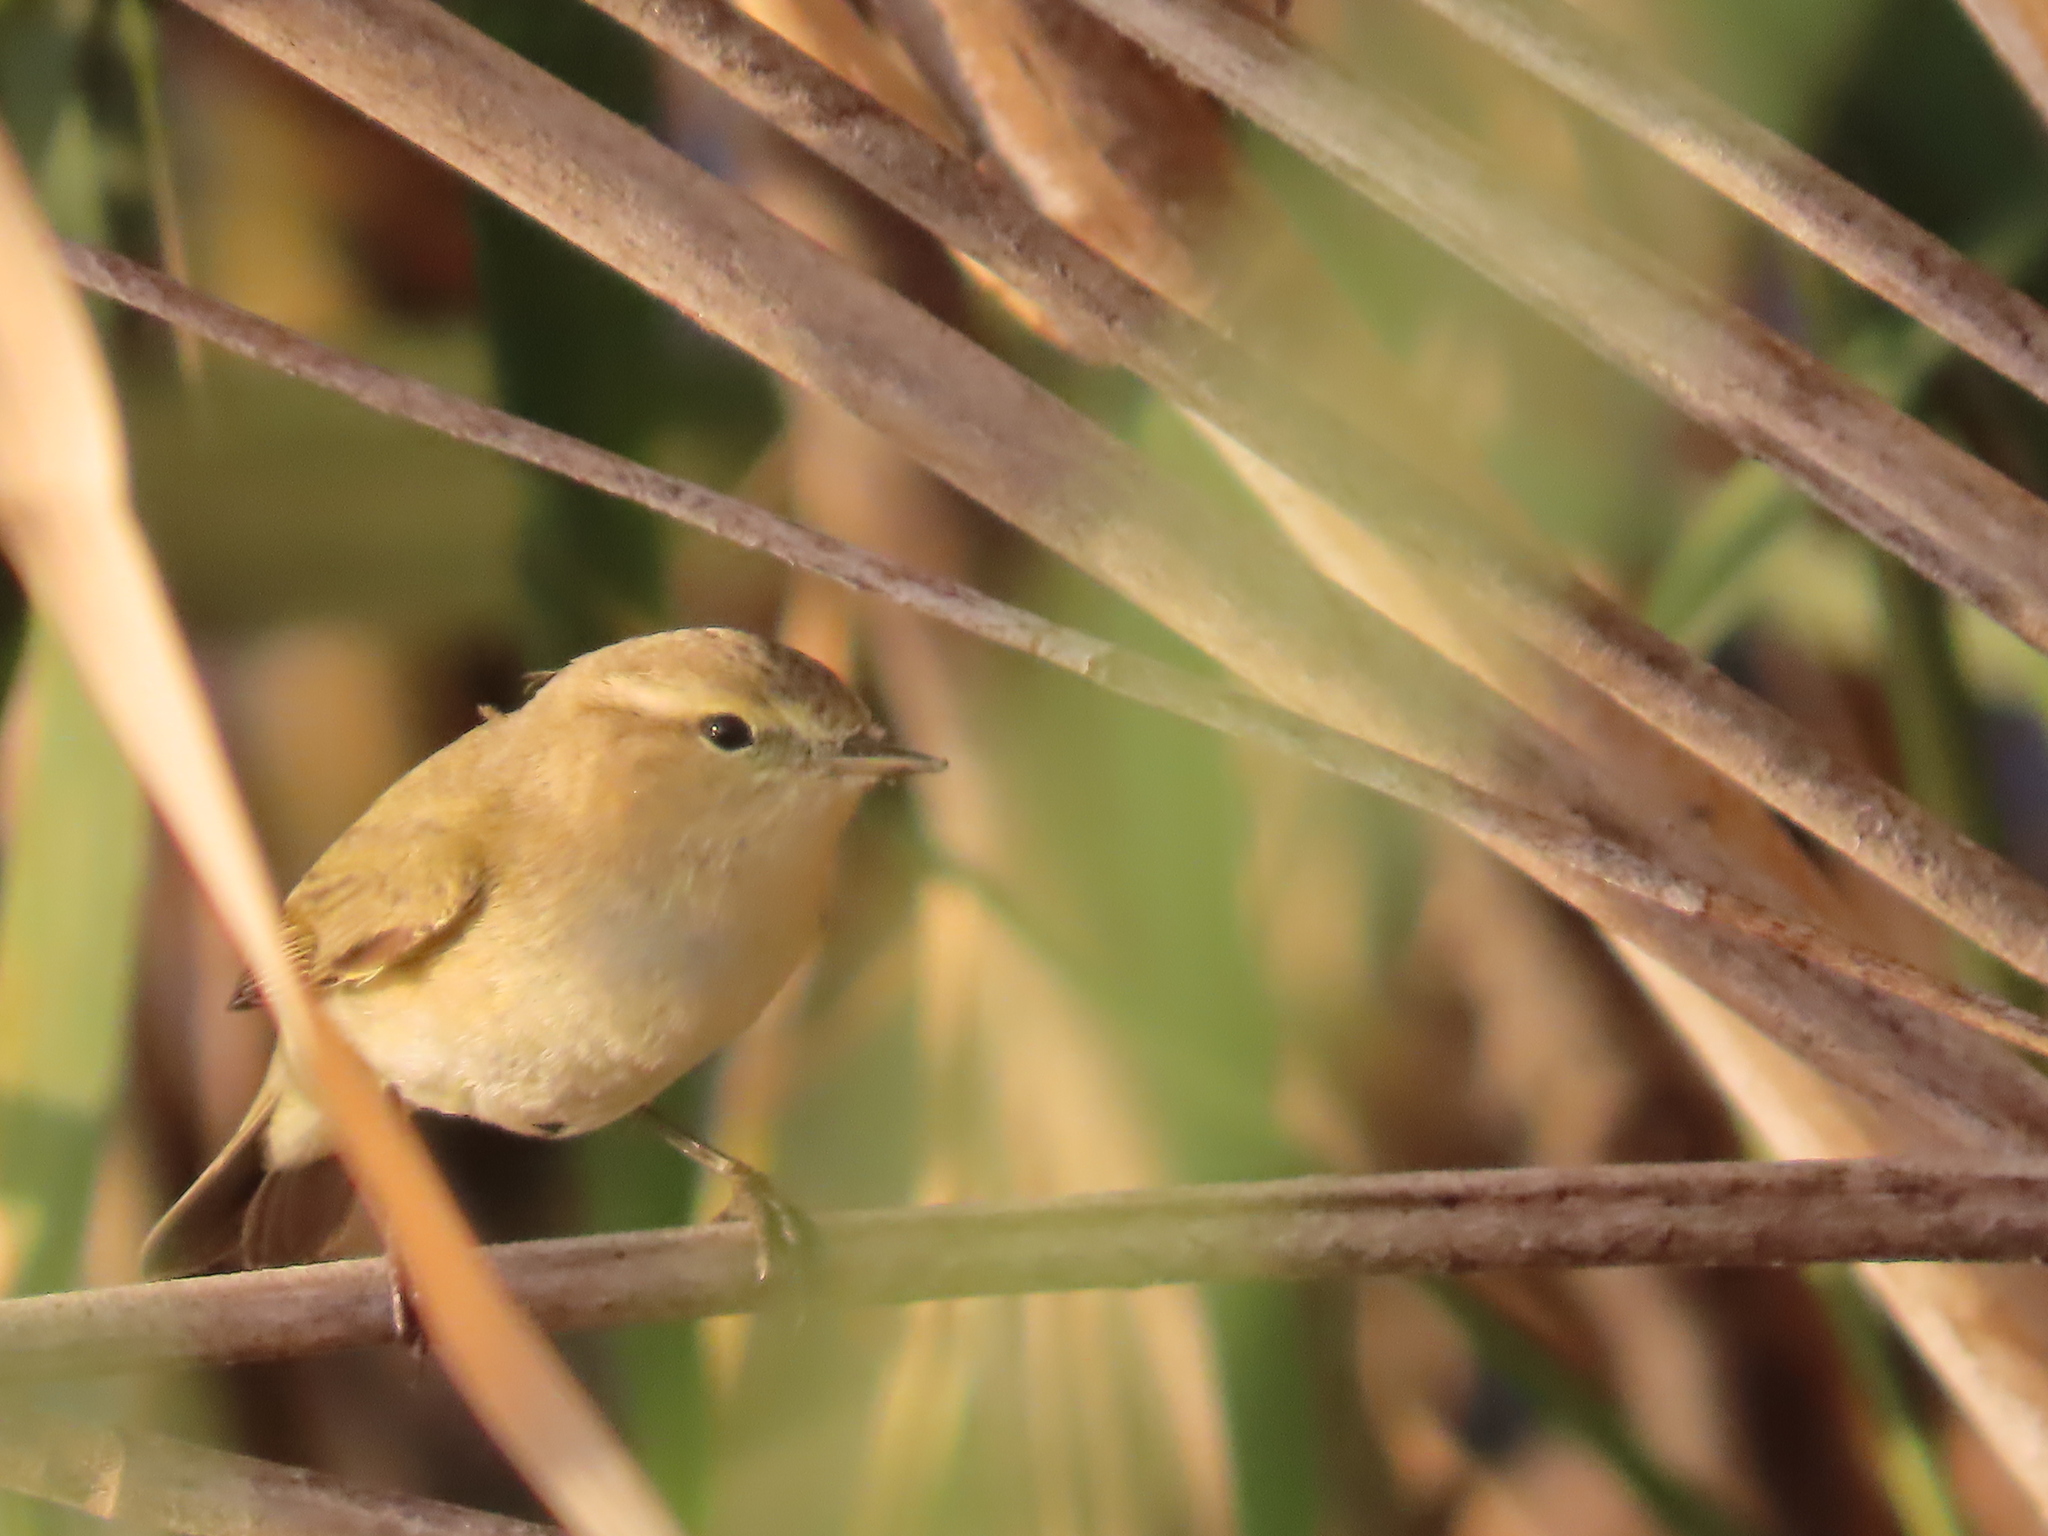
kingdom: Animalia
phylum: Chordata
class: Aves
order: Passeriformes
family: Phylloscopidae
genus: Phylloscopus
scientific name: Phylloscopus collybita
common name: Common chiffchaff
